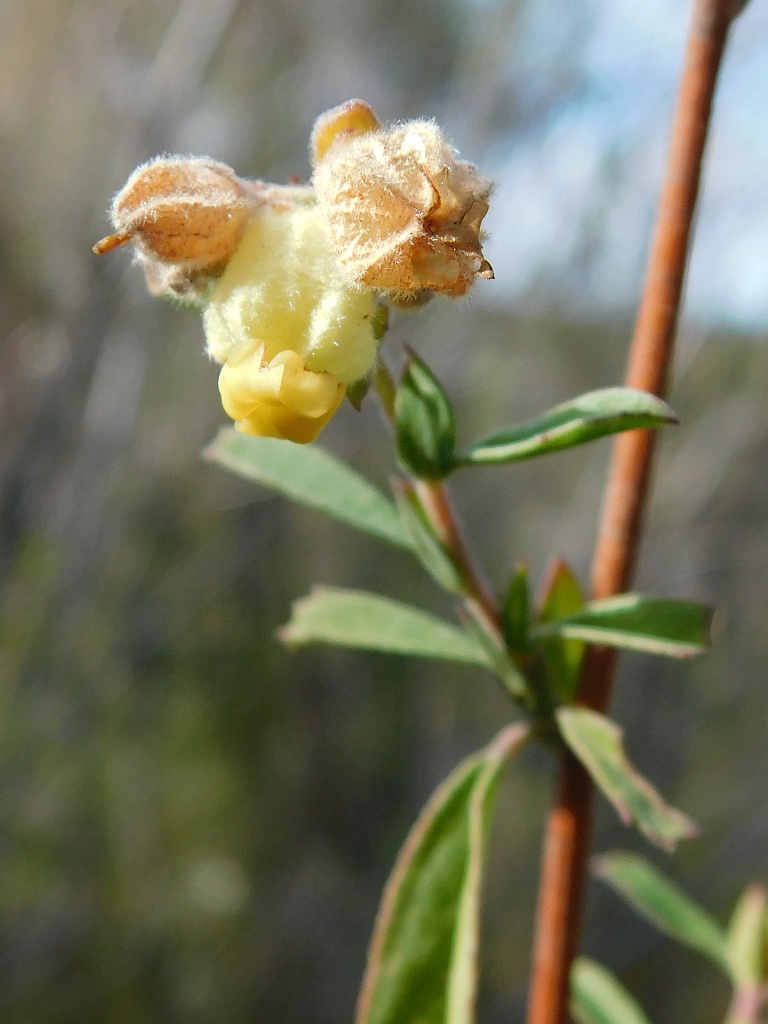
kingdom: Plantae
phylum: Tracheophyta
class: Magnoliopsida
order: Malvales
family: Malvaceae
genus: Hermannia
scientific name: Hermannia hyssopifolia
